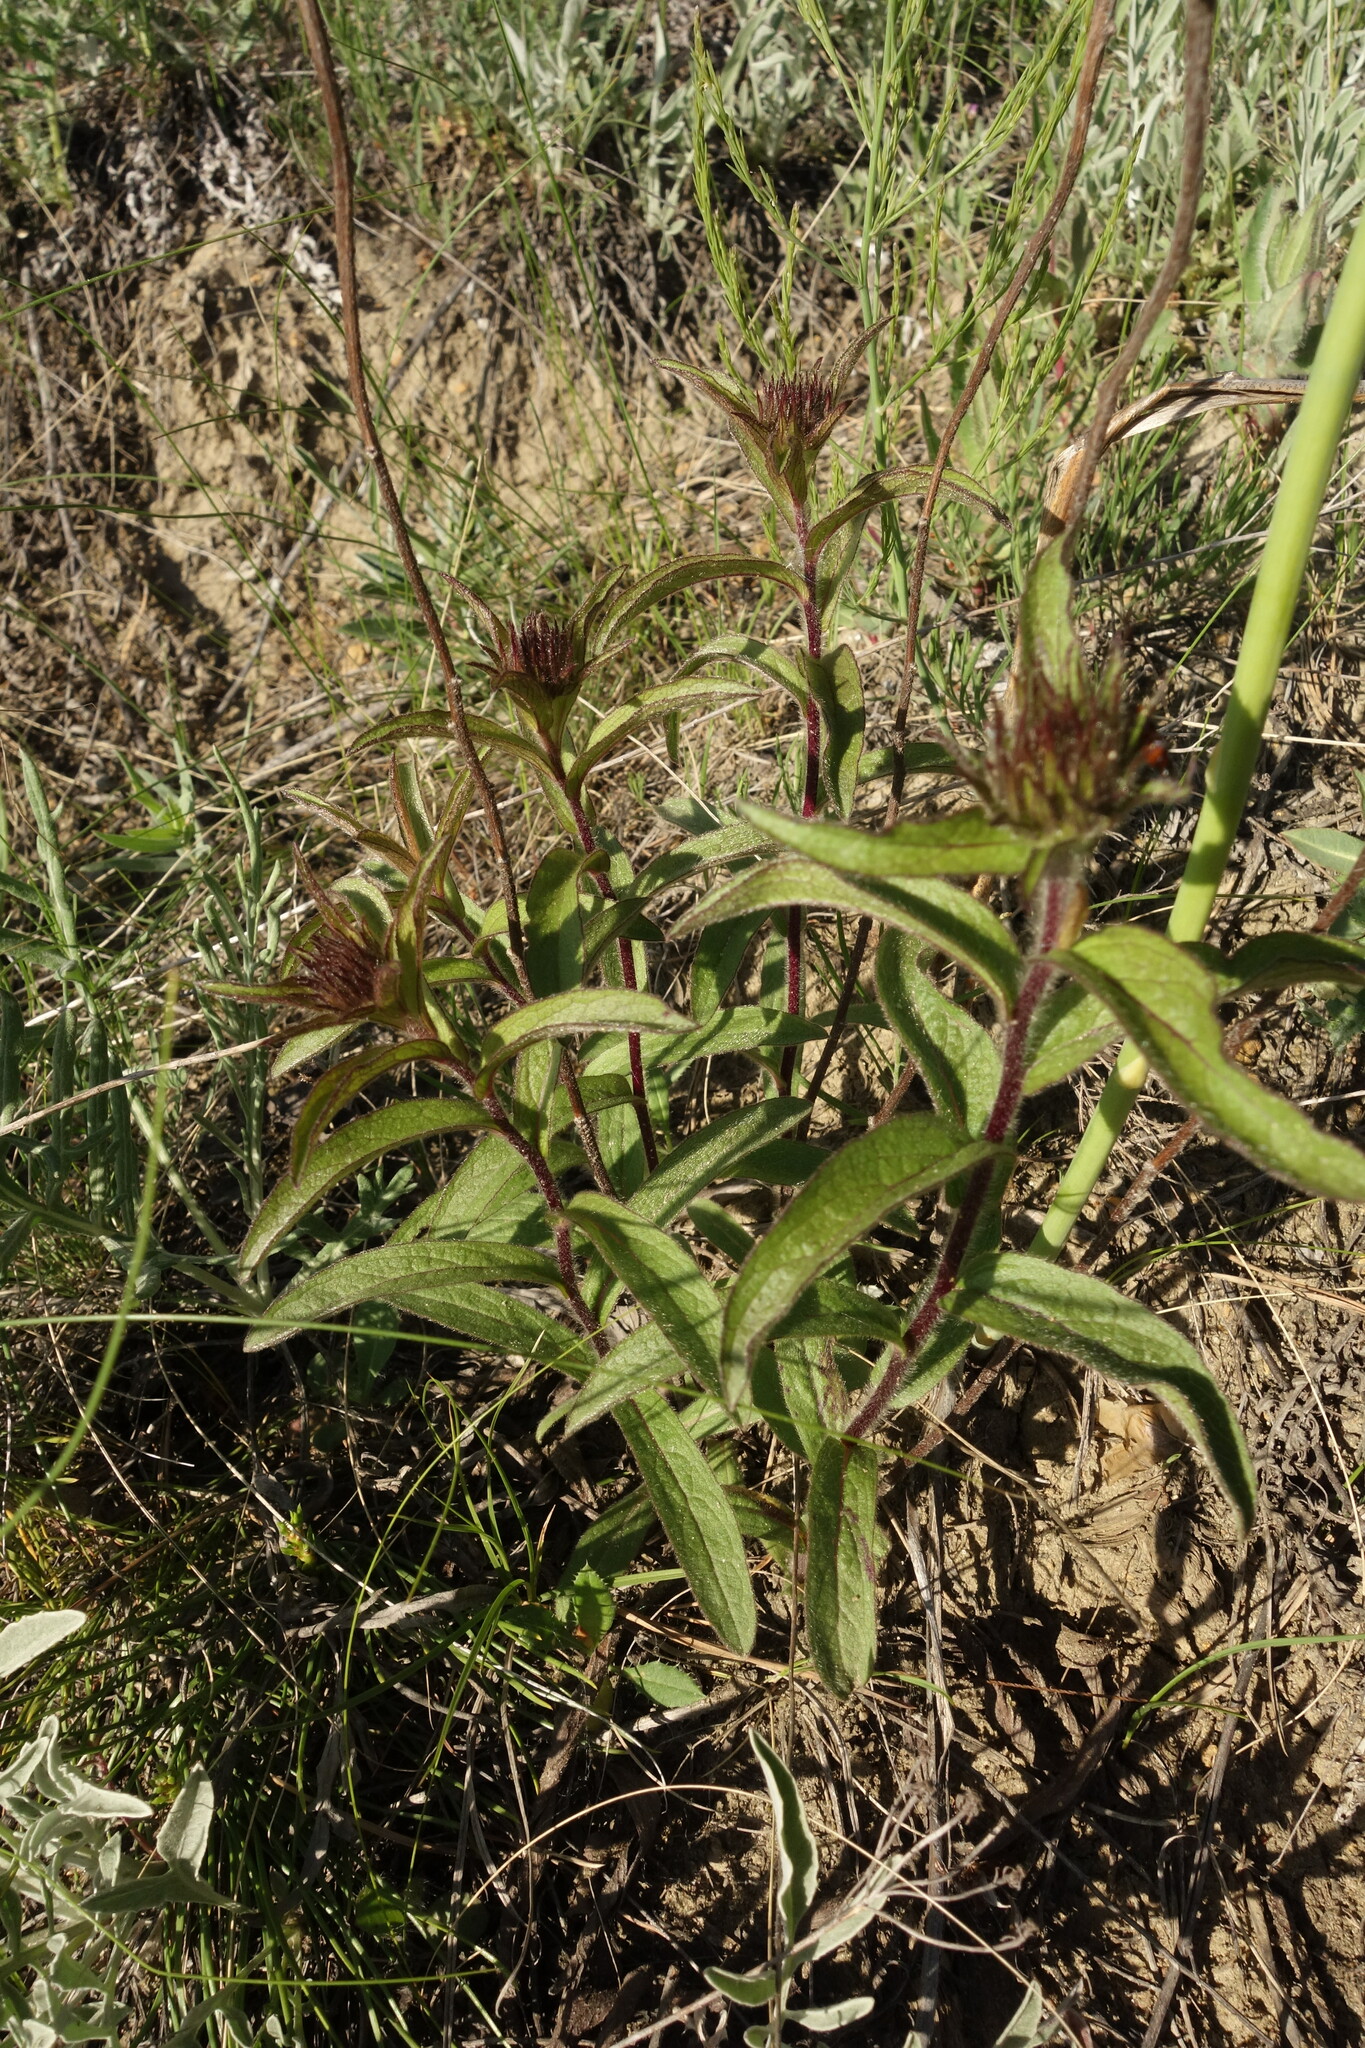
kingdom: Plantae
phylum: Tracheophyta
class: Magnoliopsida
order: Asterales
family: Asteraceae
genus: Pentanema
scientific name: Pentanema hirtum
